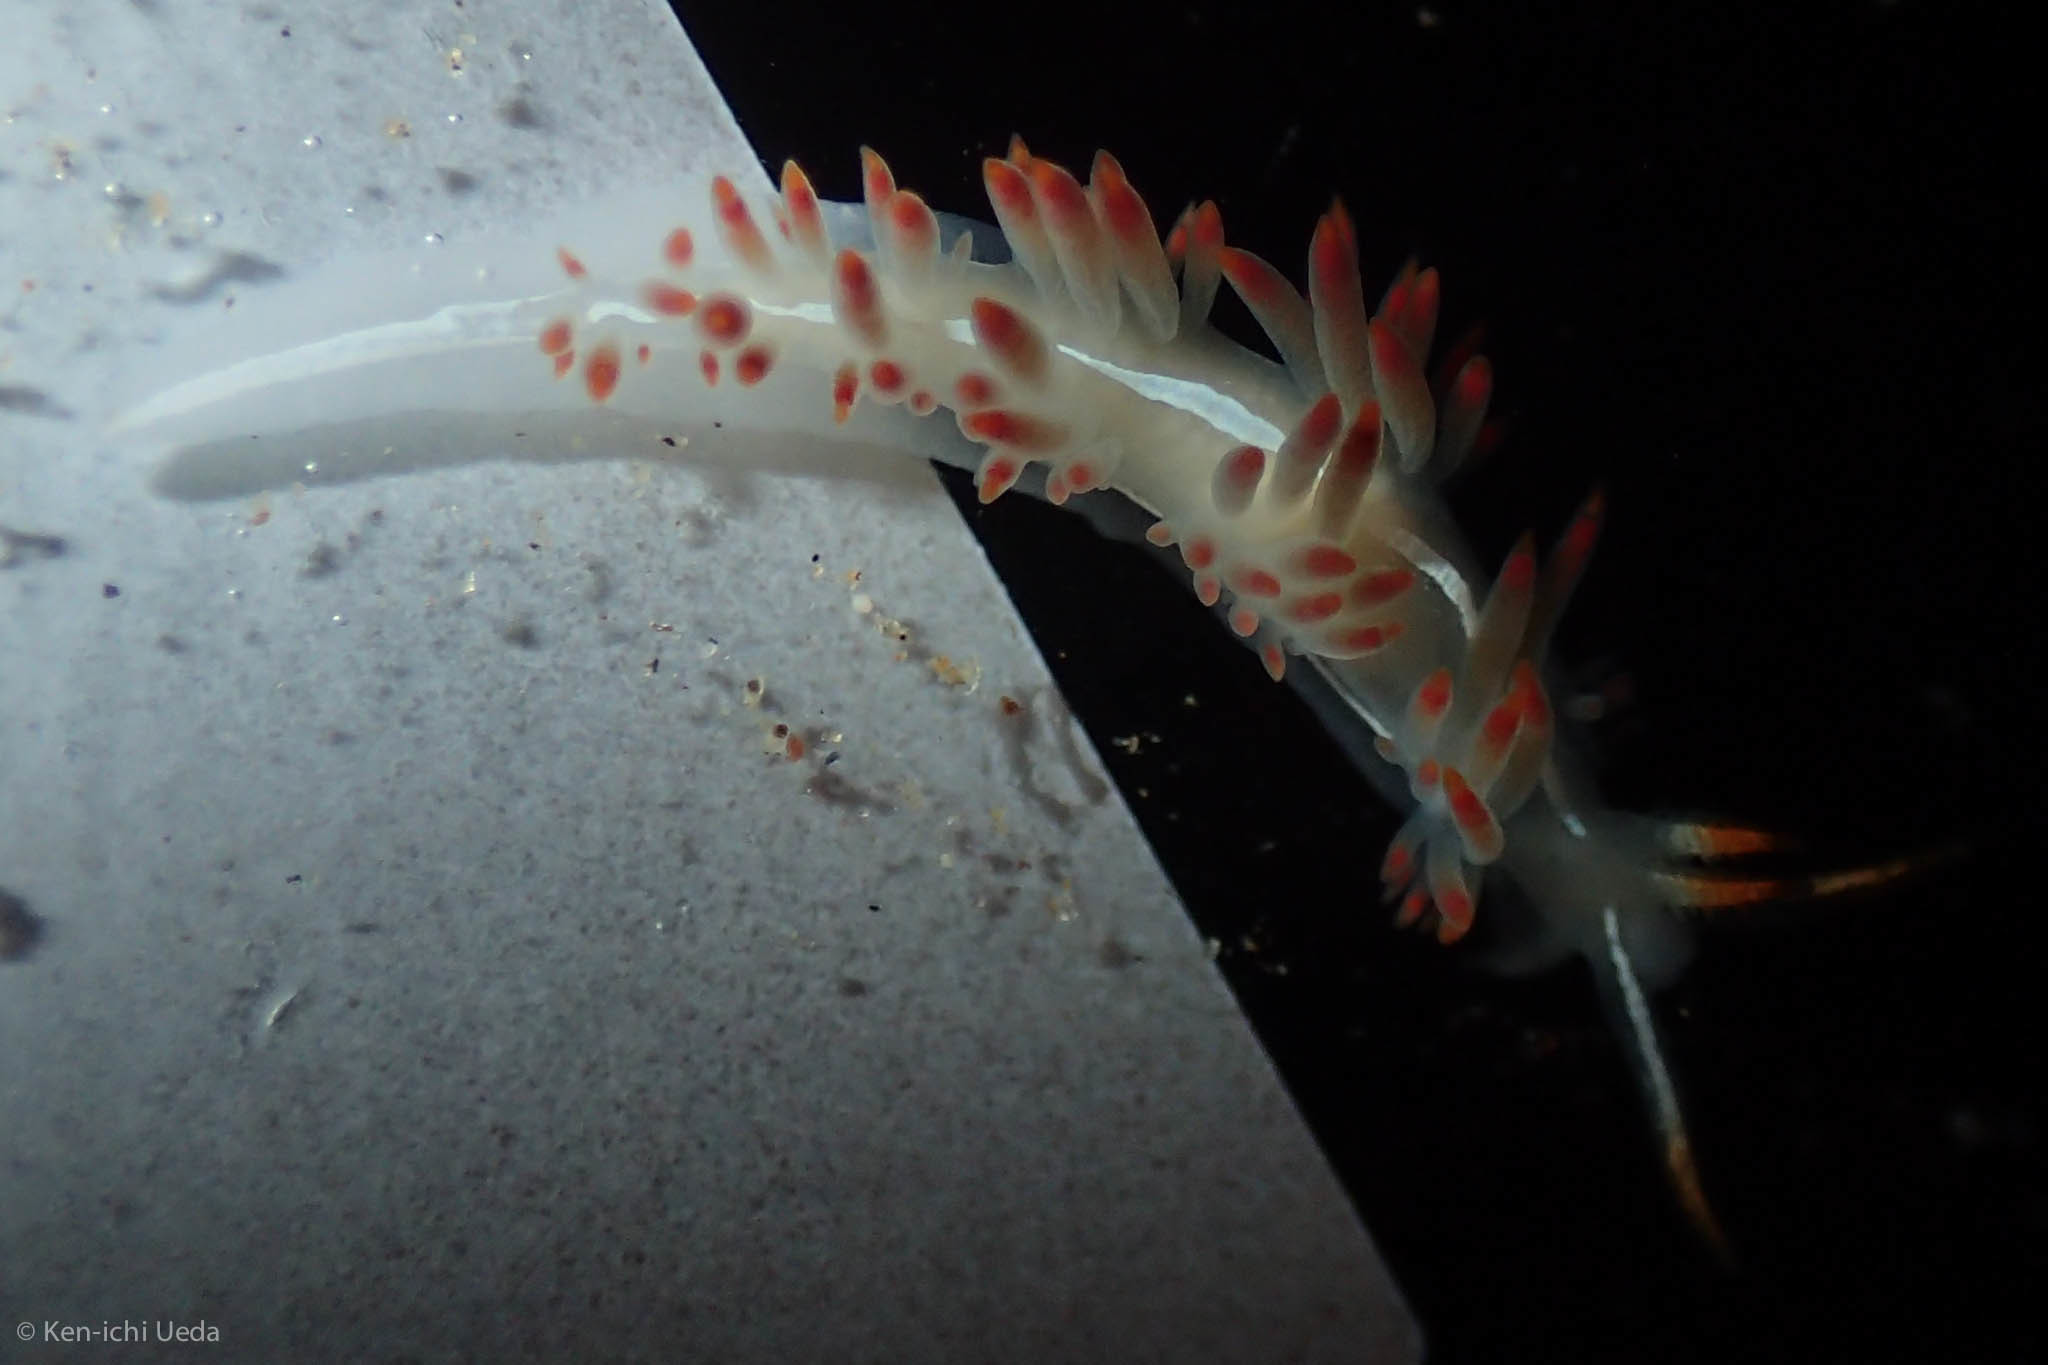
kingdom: Animalia
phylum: Mollusca
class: Gastropoda
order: Nudibranchia
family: Coryphellidae
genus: Coryphella
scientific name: Coryphella trilineata
